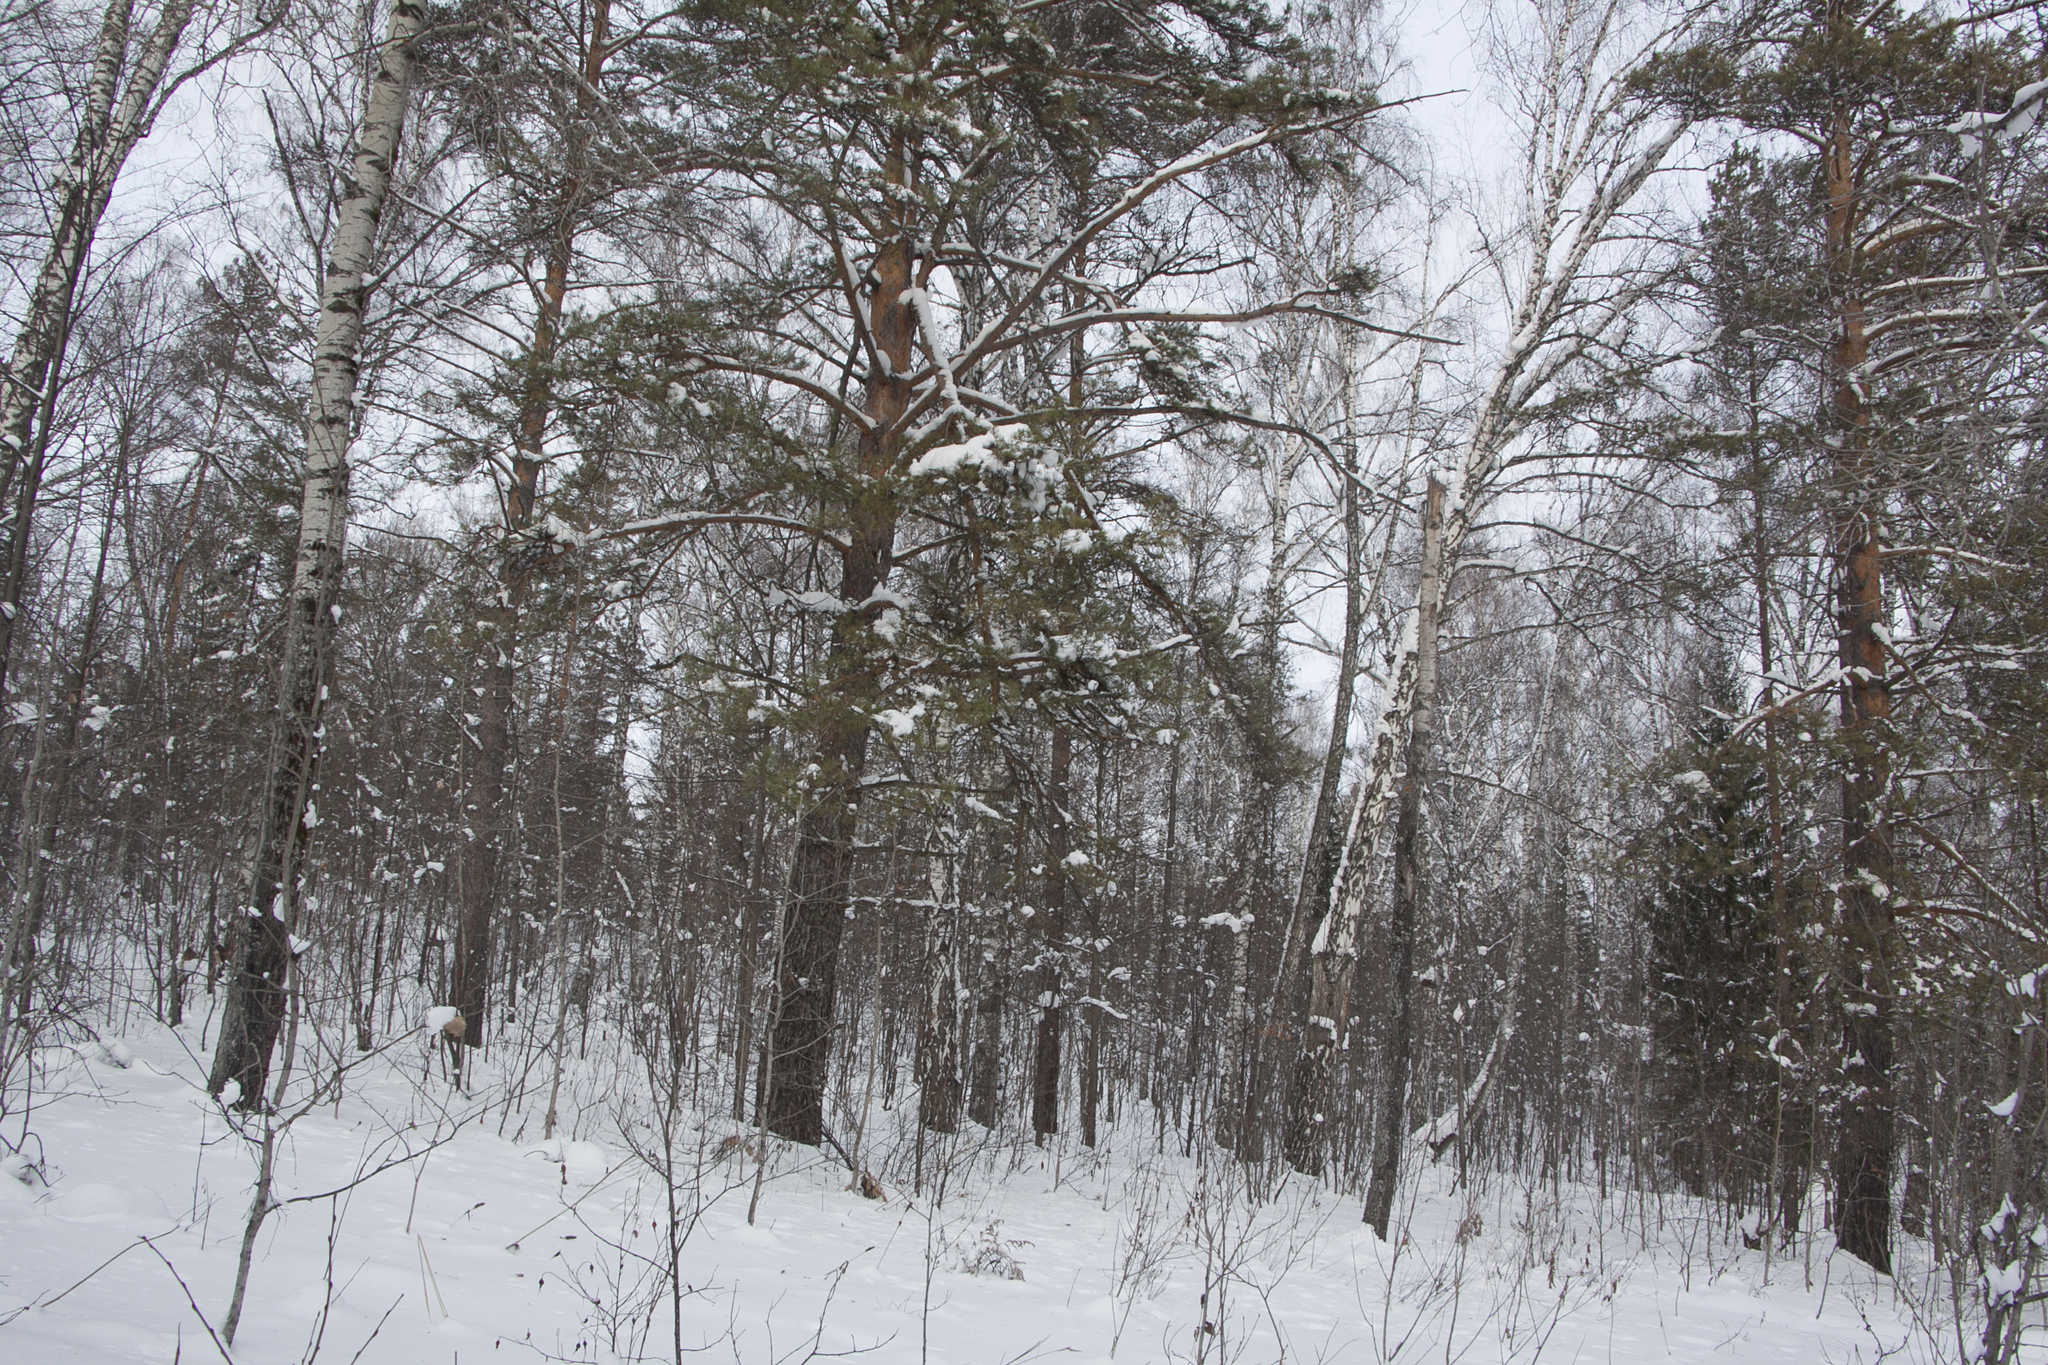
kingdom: Plantae
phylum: Tracheophyta
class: Magnoliopsida
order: Malpighiales
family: Salicaceae
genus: Populus
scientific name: Populus tremula
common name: European aspen
